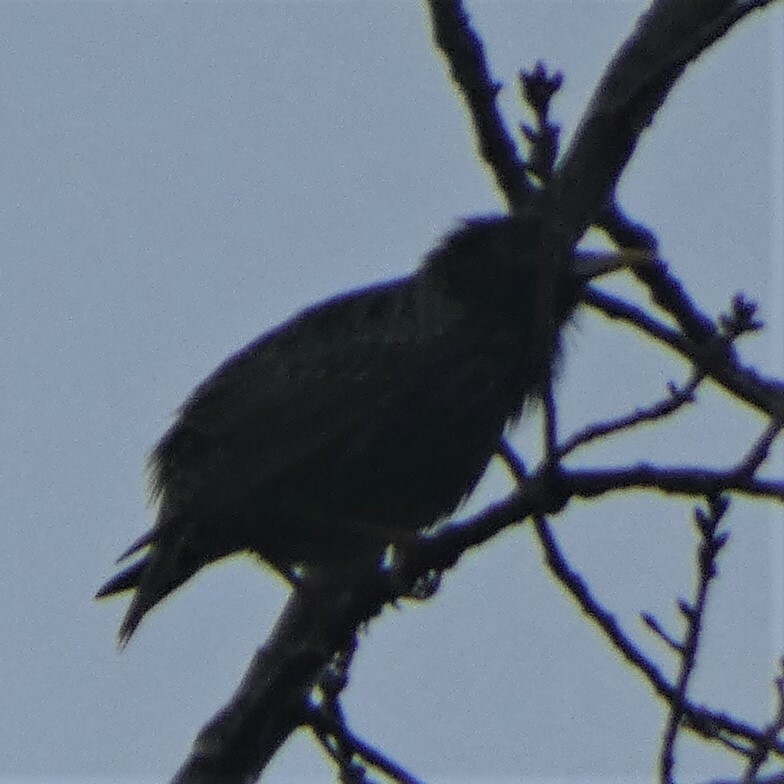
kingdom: Animalia
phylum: Chordata
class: Aves
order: Passeriformes
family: Sturnidae
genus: Sturnus
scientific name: Sturnus vulgaris
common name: Common starling
